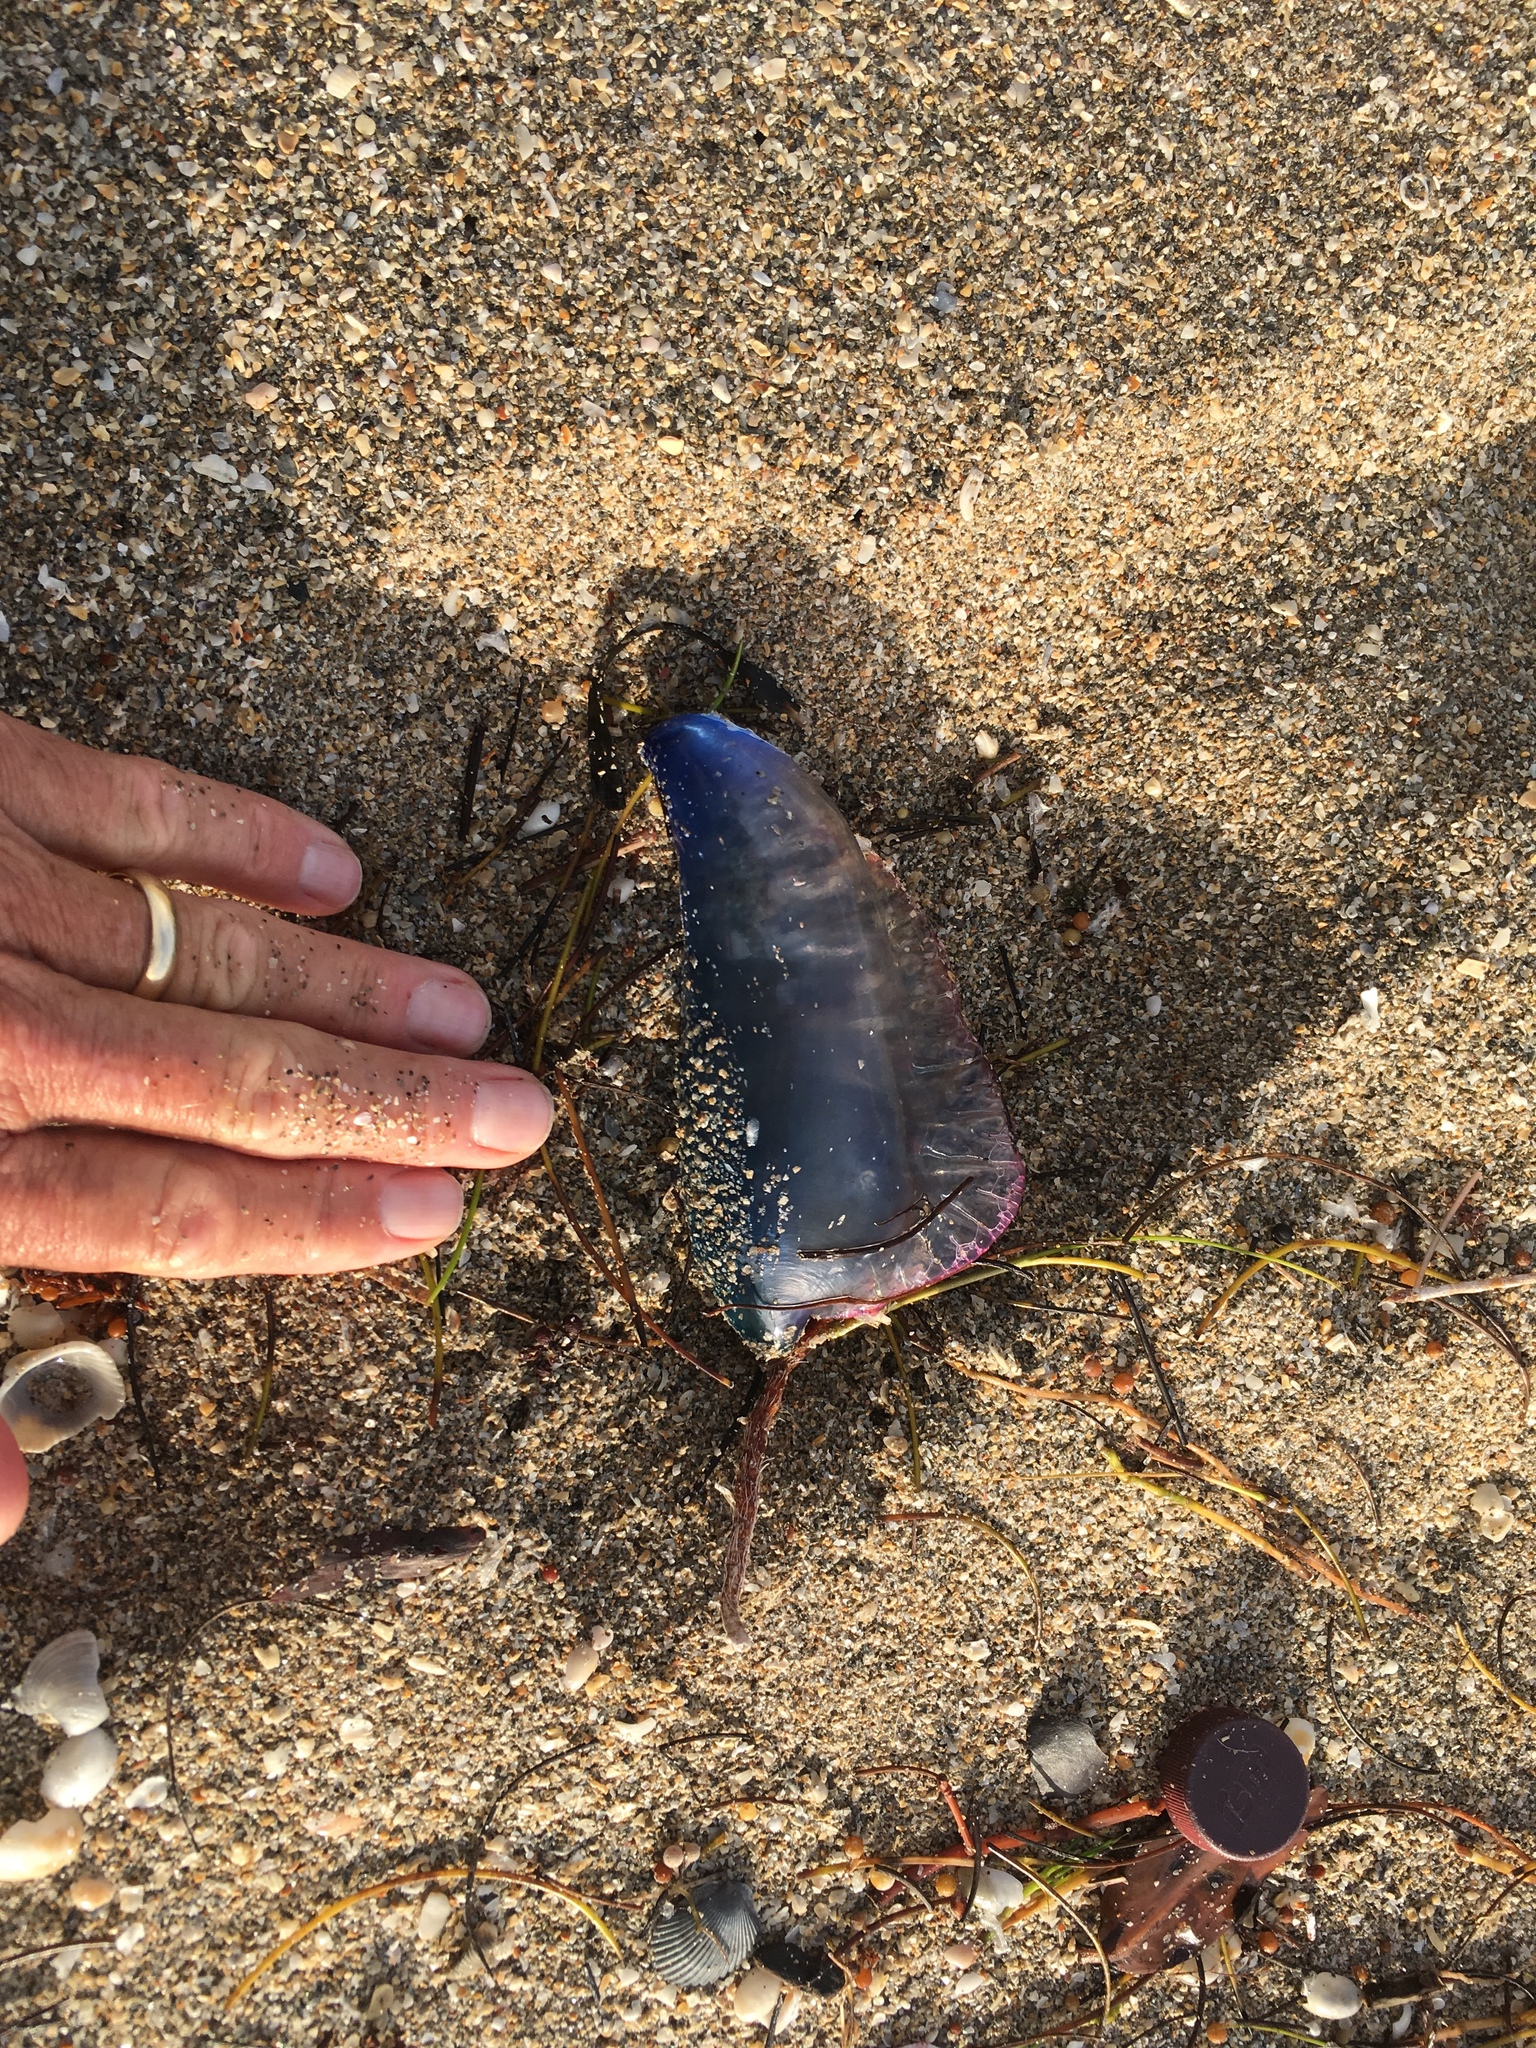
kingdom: Animalia
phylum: Cnidaria
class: Hydrozoa
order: Siphonophorae
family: Physaliidae
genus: Physalia
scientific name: Physalia physalis
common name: Portuguese man-of-war
